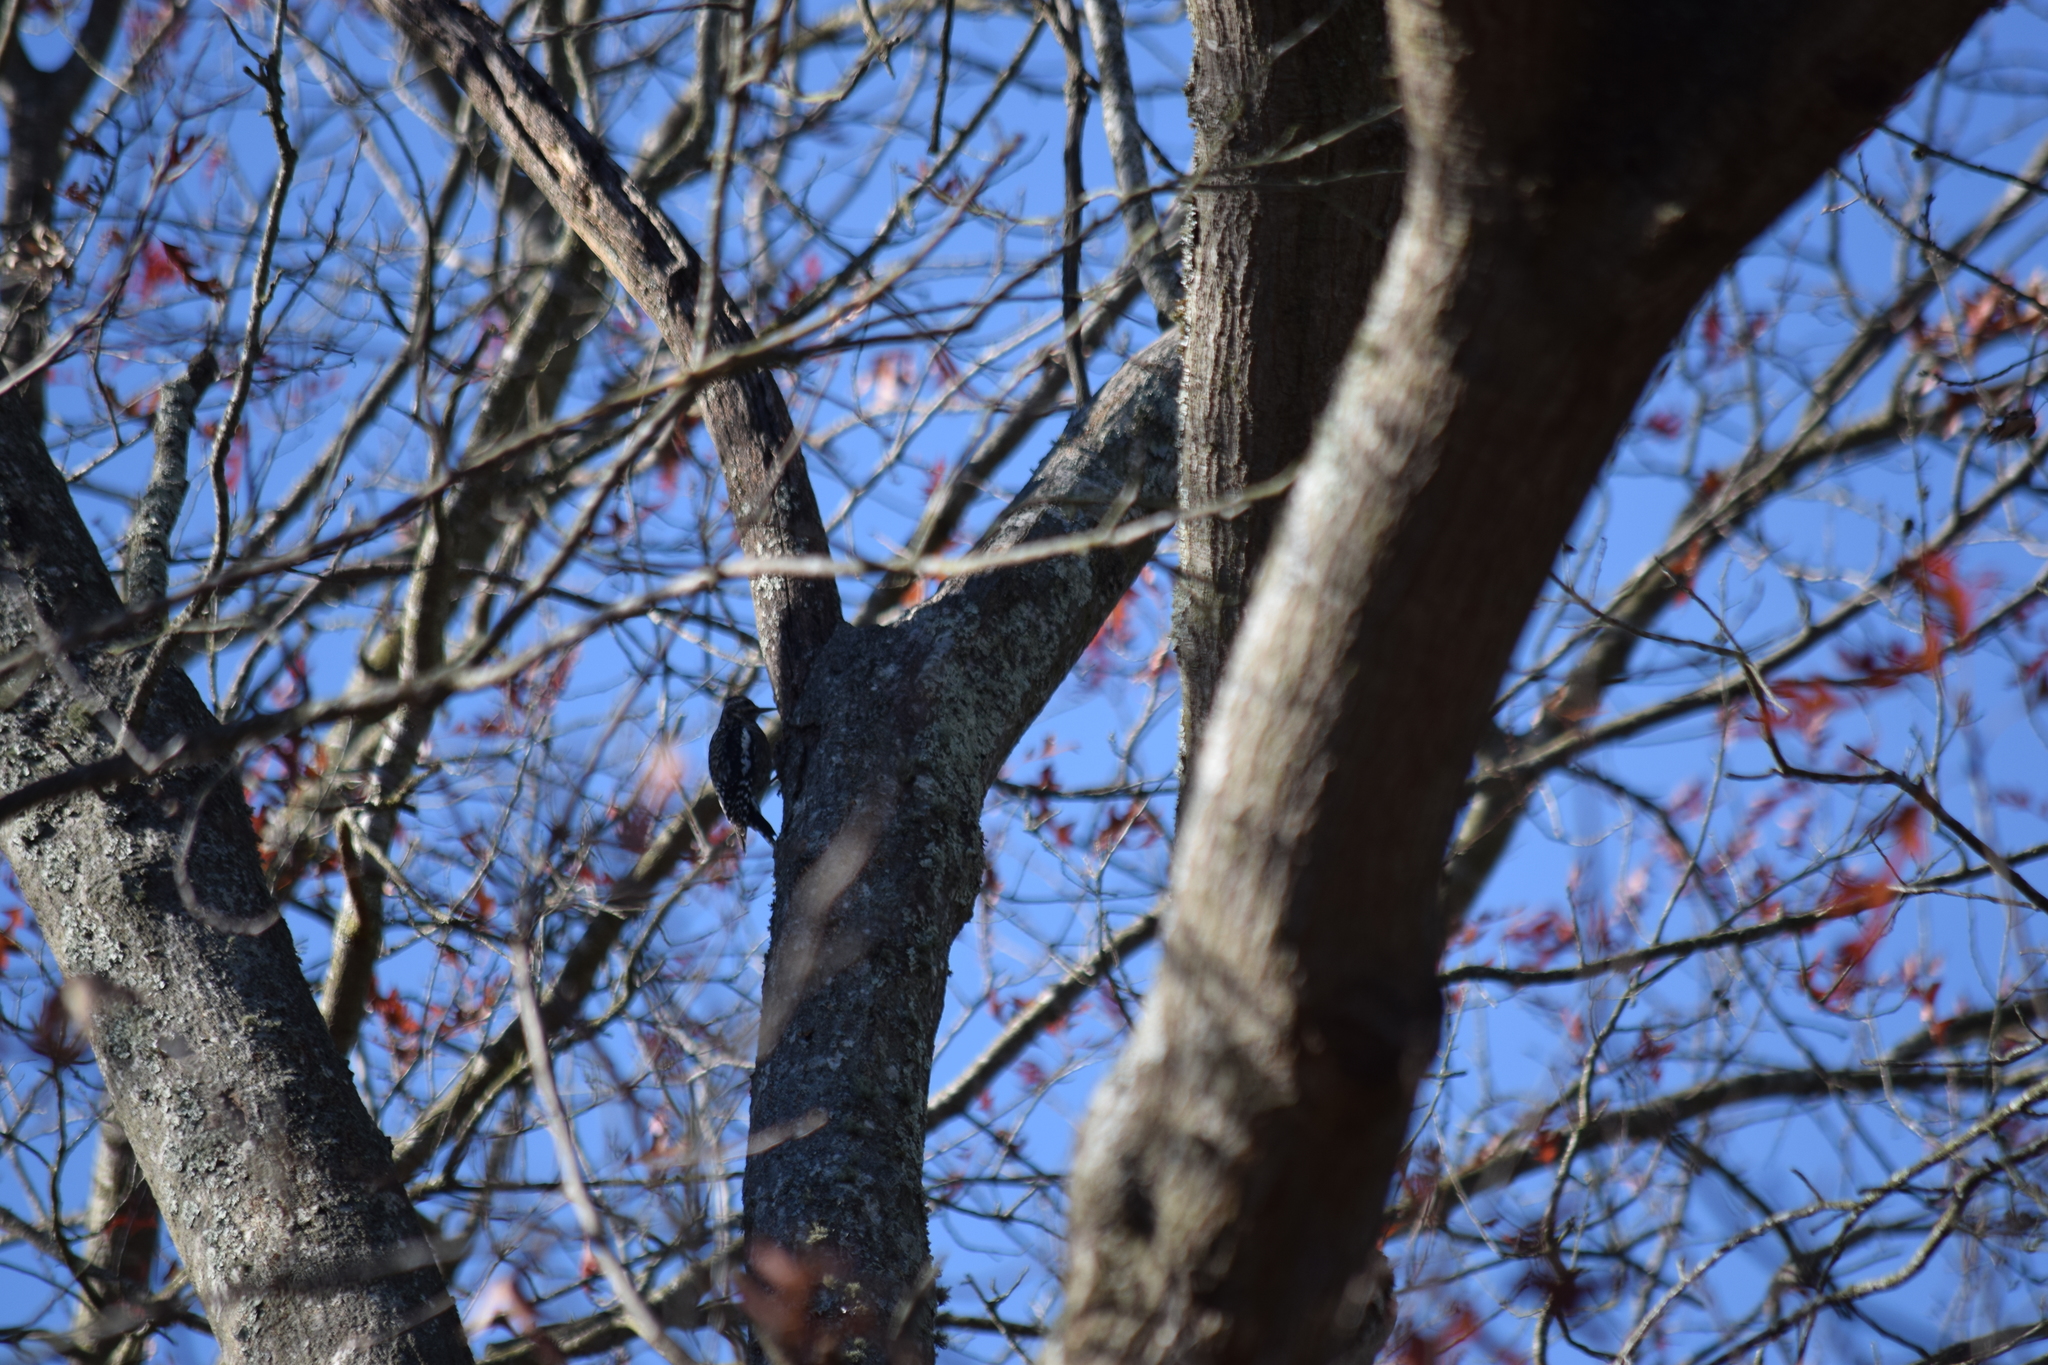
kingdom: Animalia
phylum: Chordata
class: Aves
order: Piciformes
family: Picidae
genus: Sphyrapicus
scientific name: Sphyrapicus varius
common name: Yellow-bellied sapsucker
